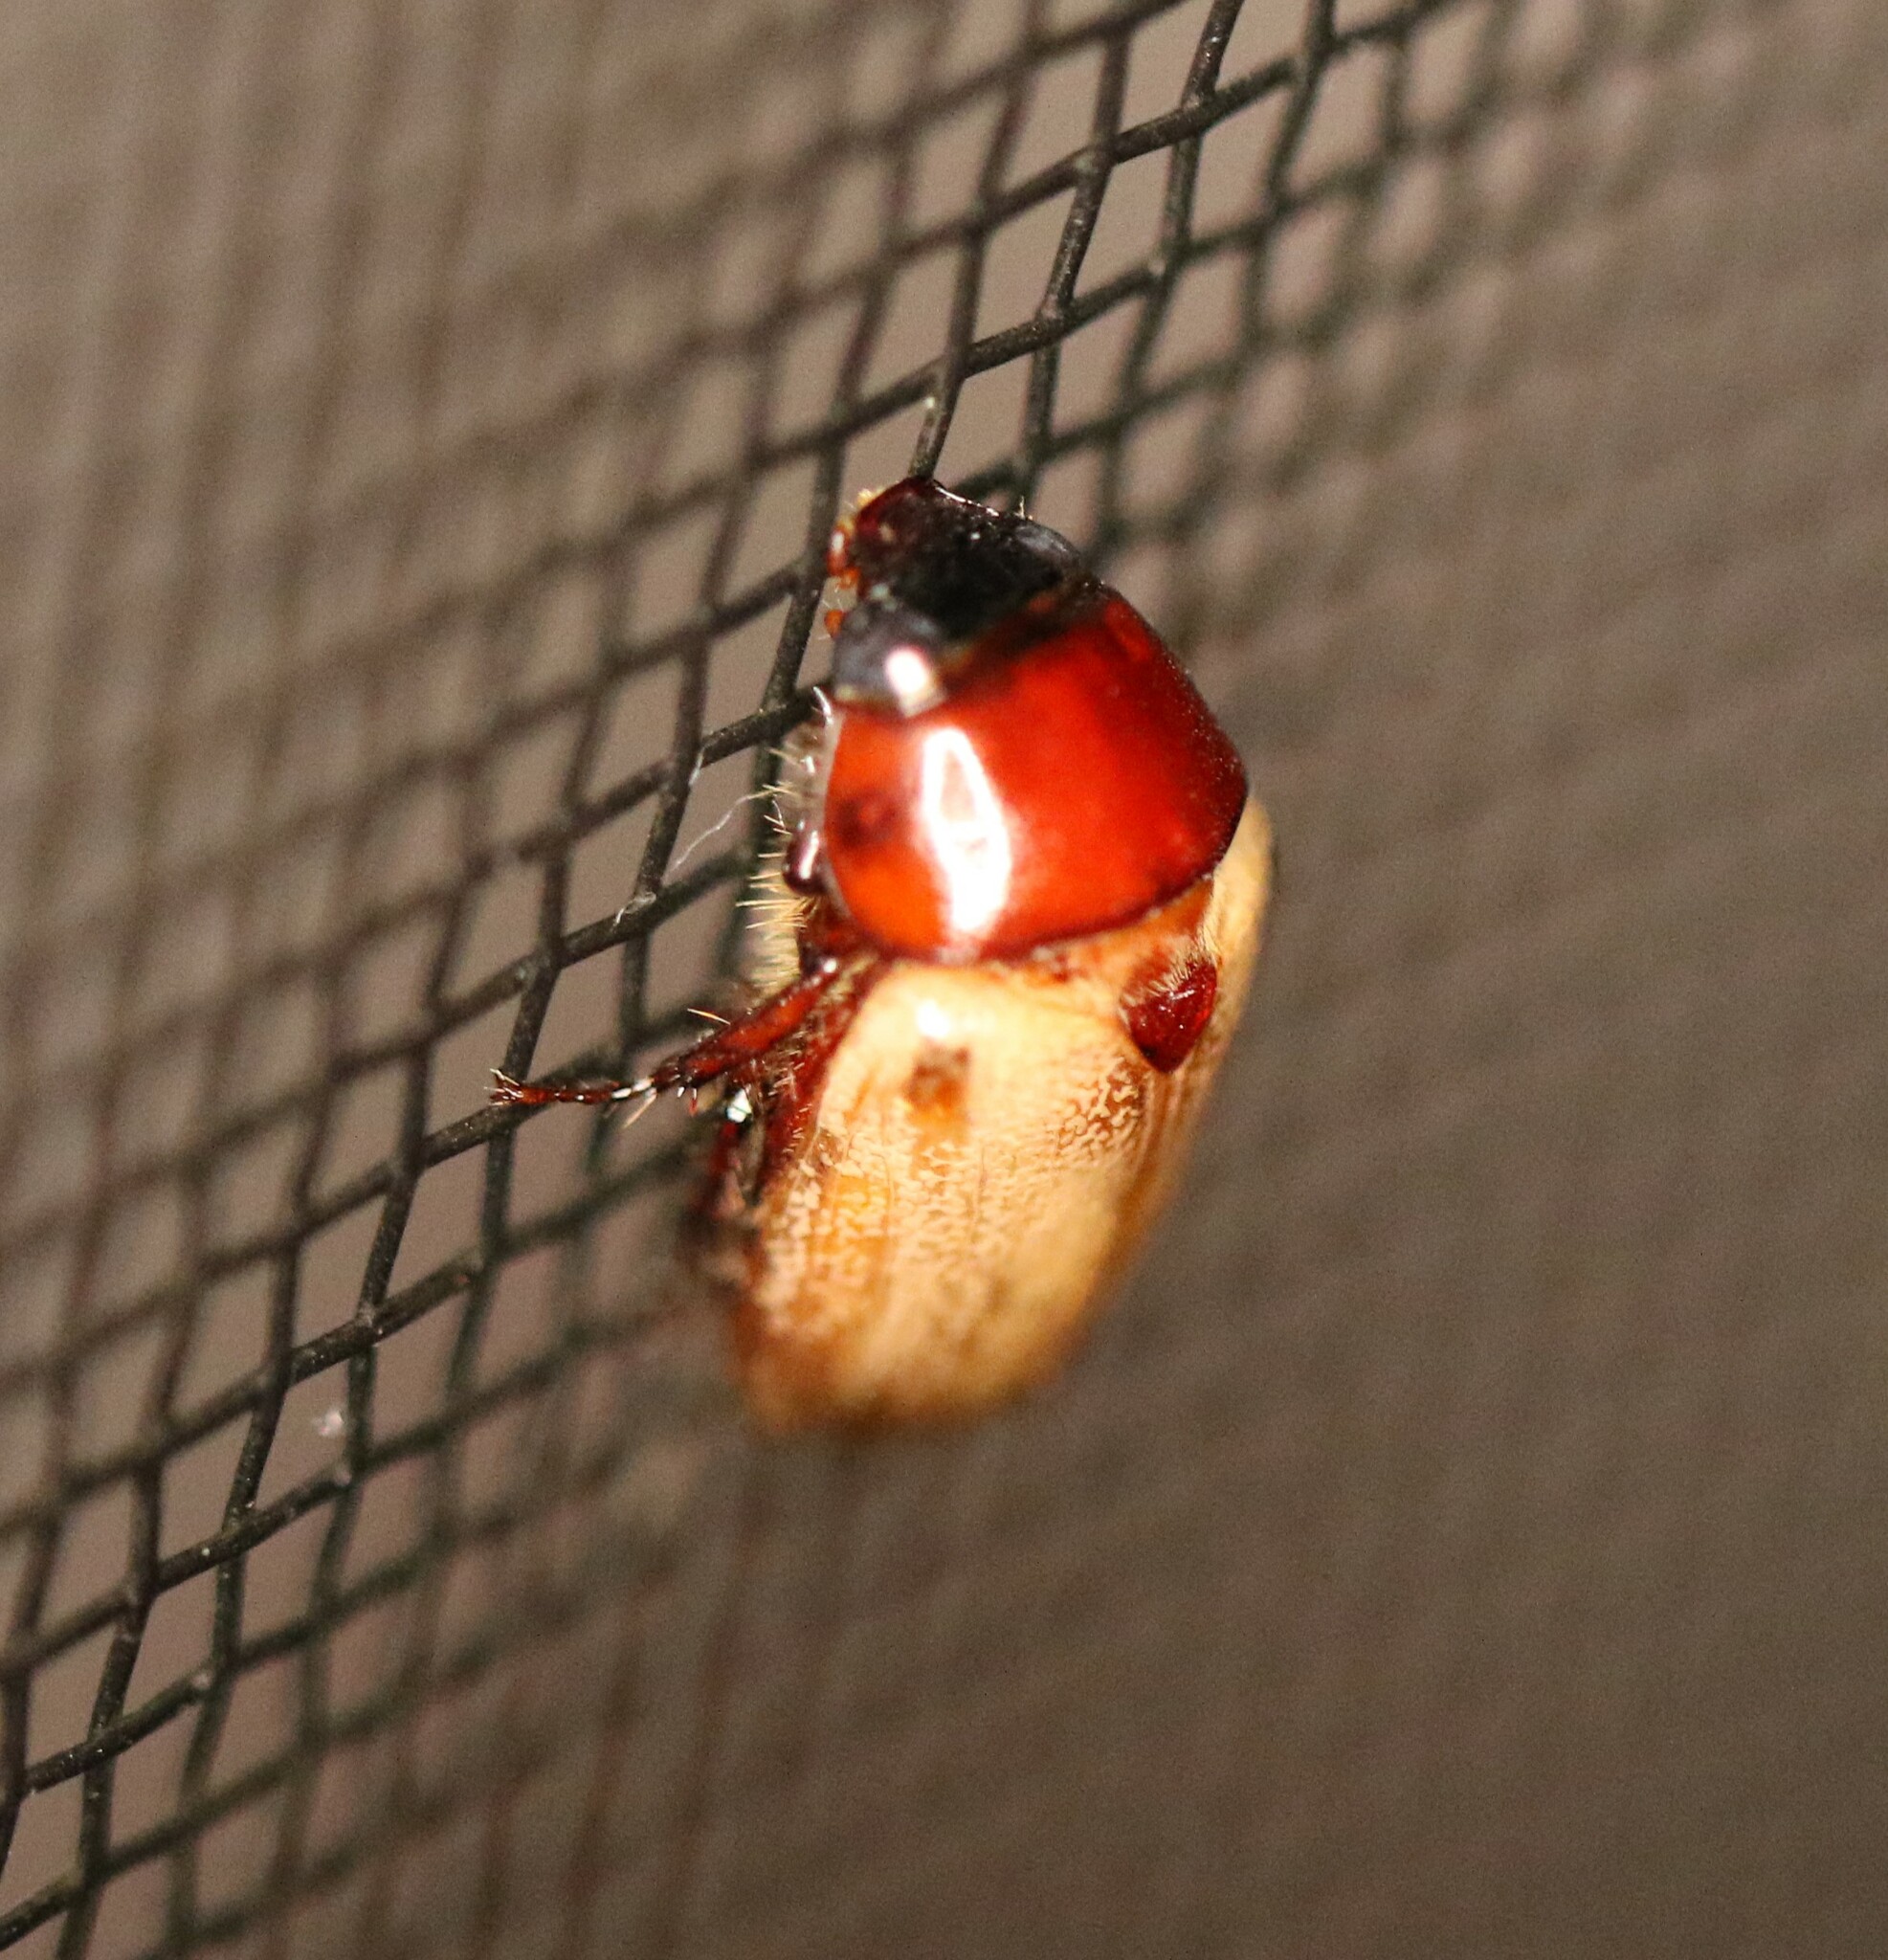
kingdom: Animalia
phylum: Arthropoda
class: Insecta
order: Coleoptera
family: Scarabaeidae
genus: Cyclocephala
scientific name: Cyclocephala melanocephala
